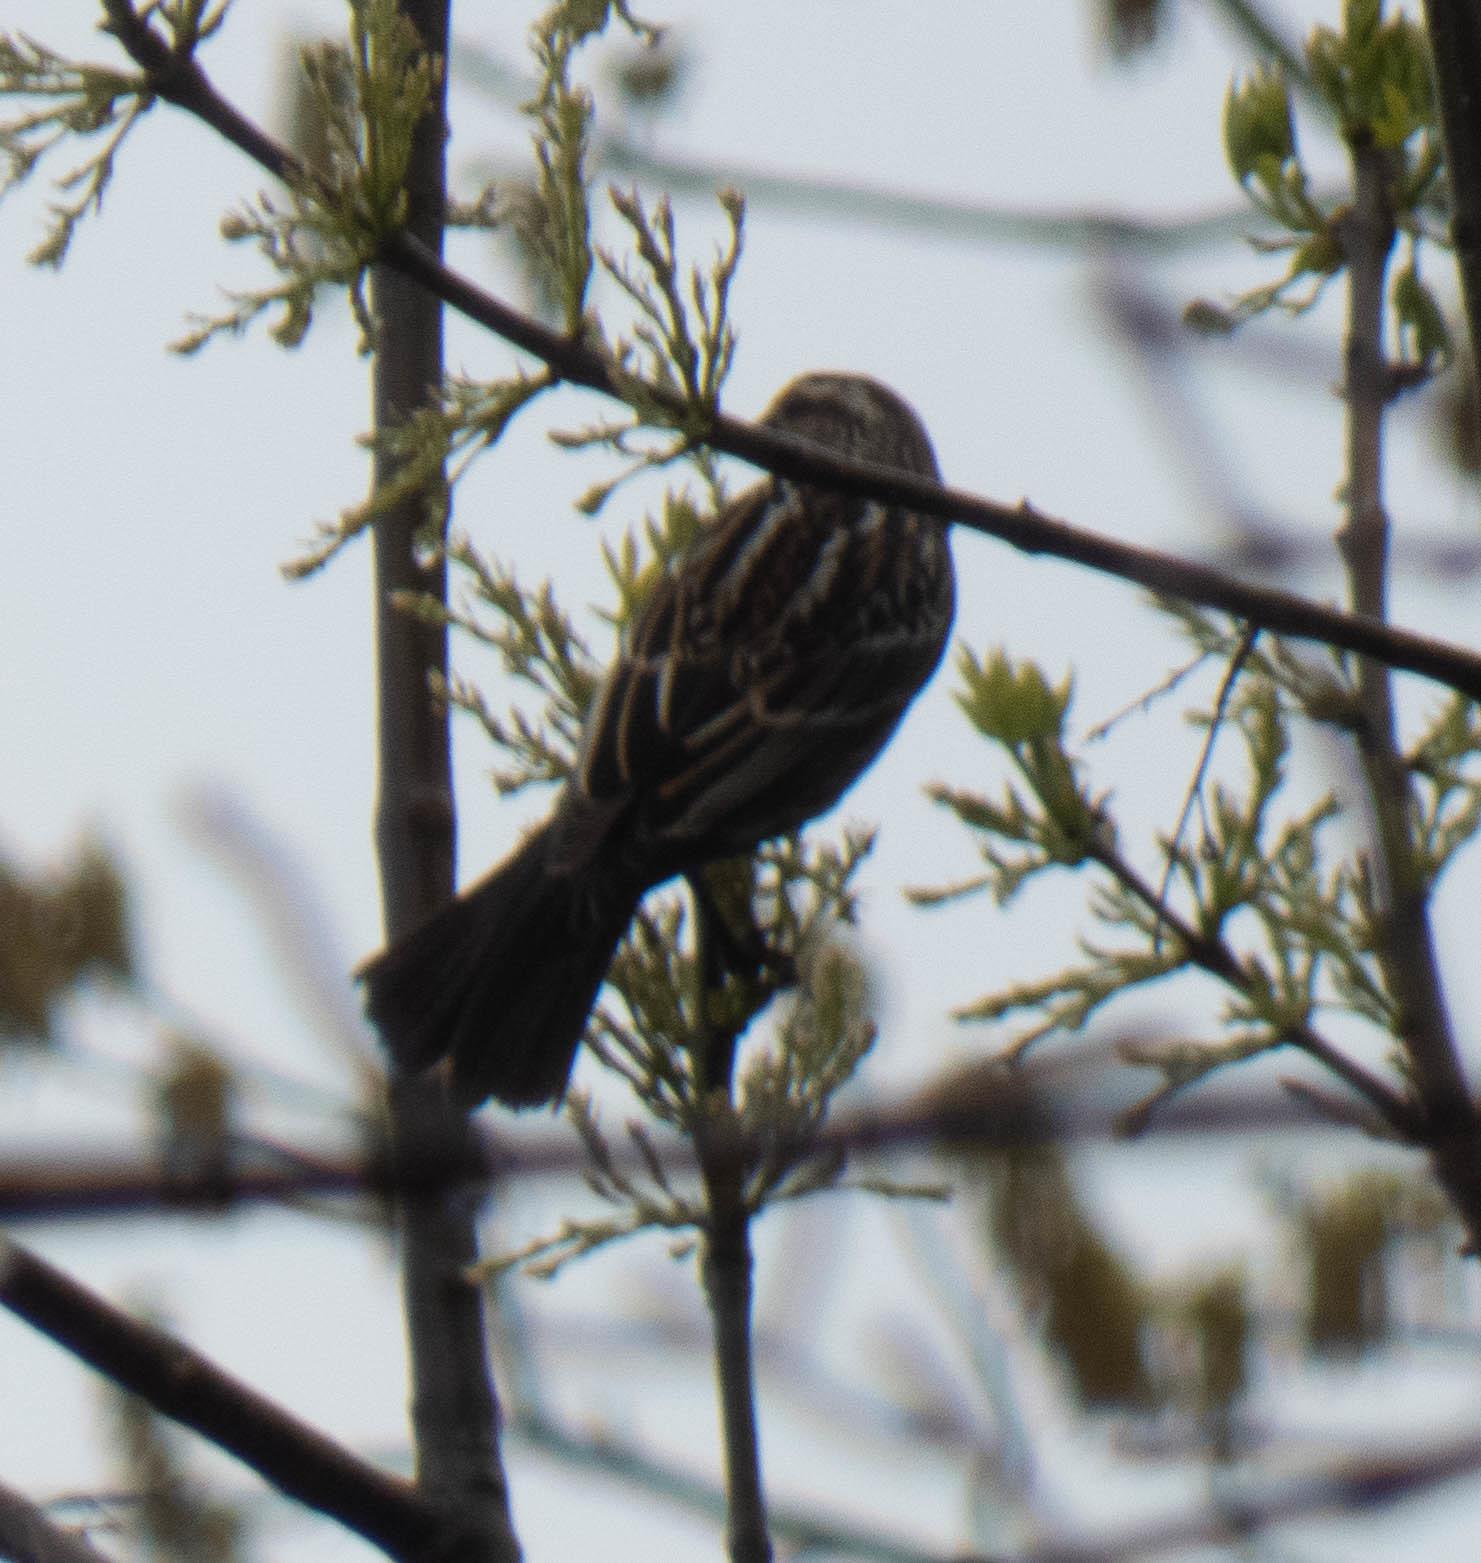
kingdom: Animalia
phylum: Chordata
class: Aves
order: Passeriformes
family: Icteridae
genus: Agelaius
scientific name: Agelaius phoeniceus
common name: Red-winged blackbird
